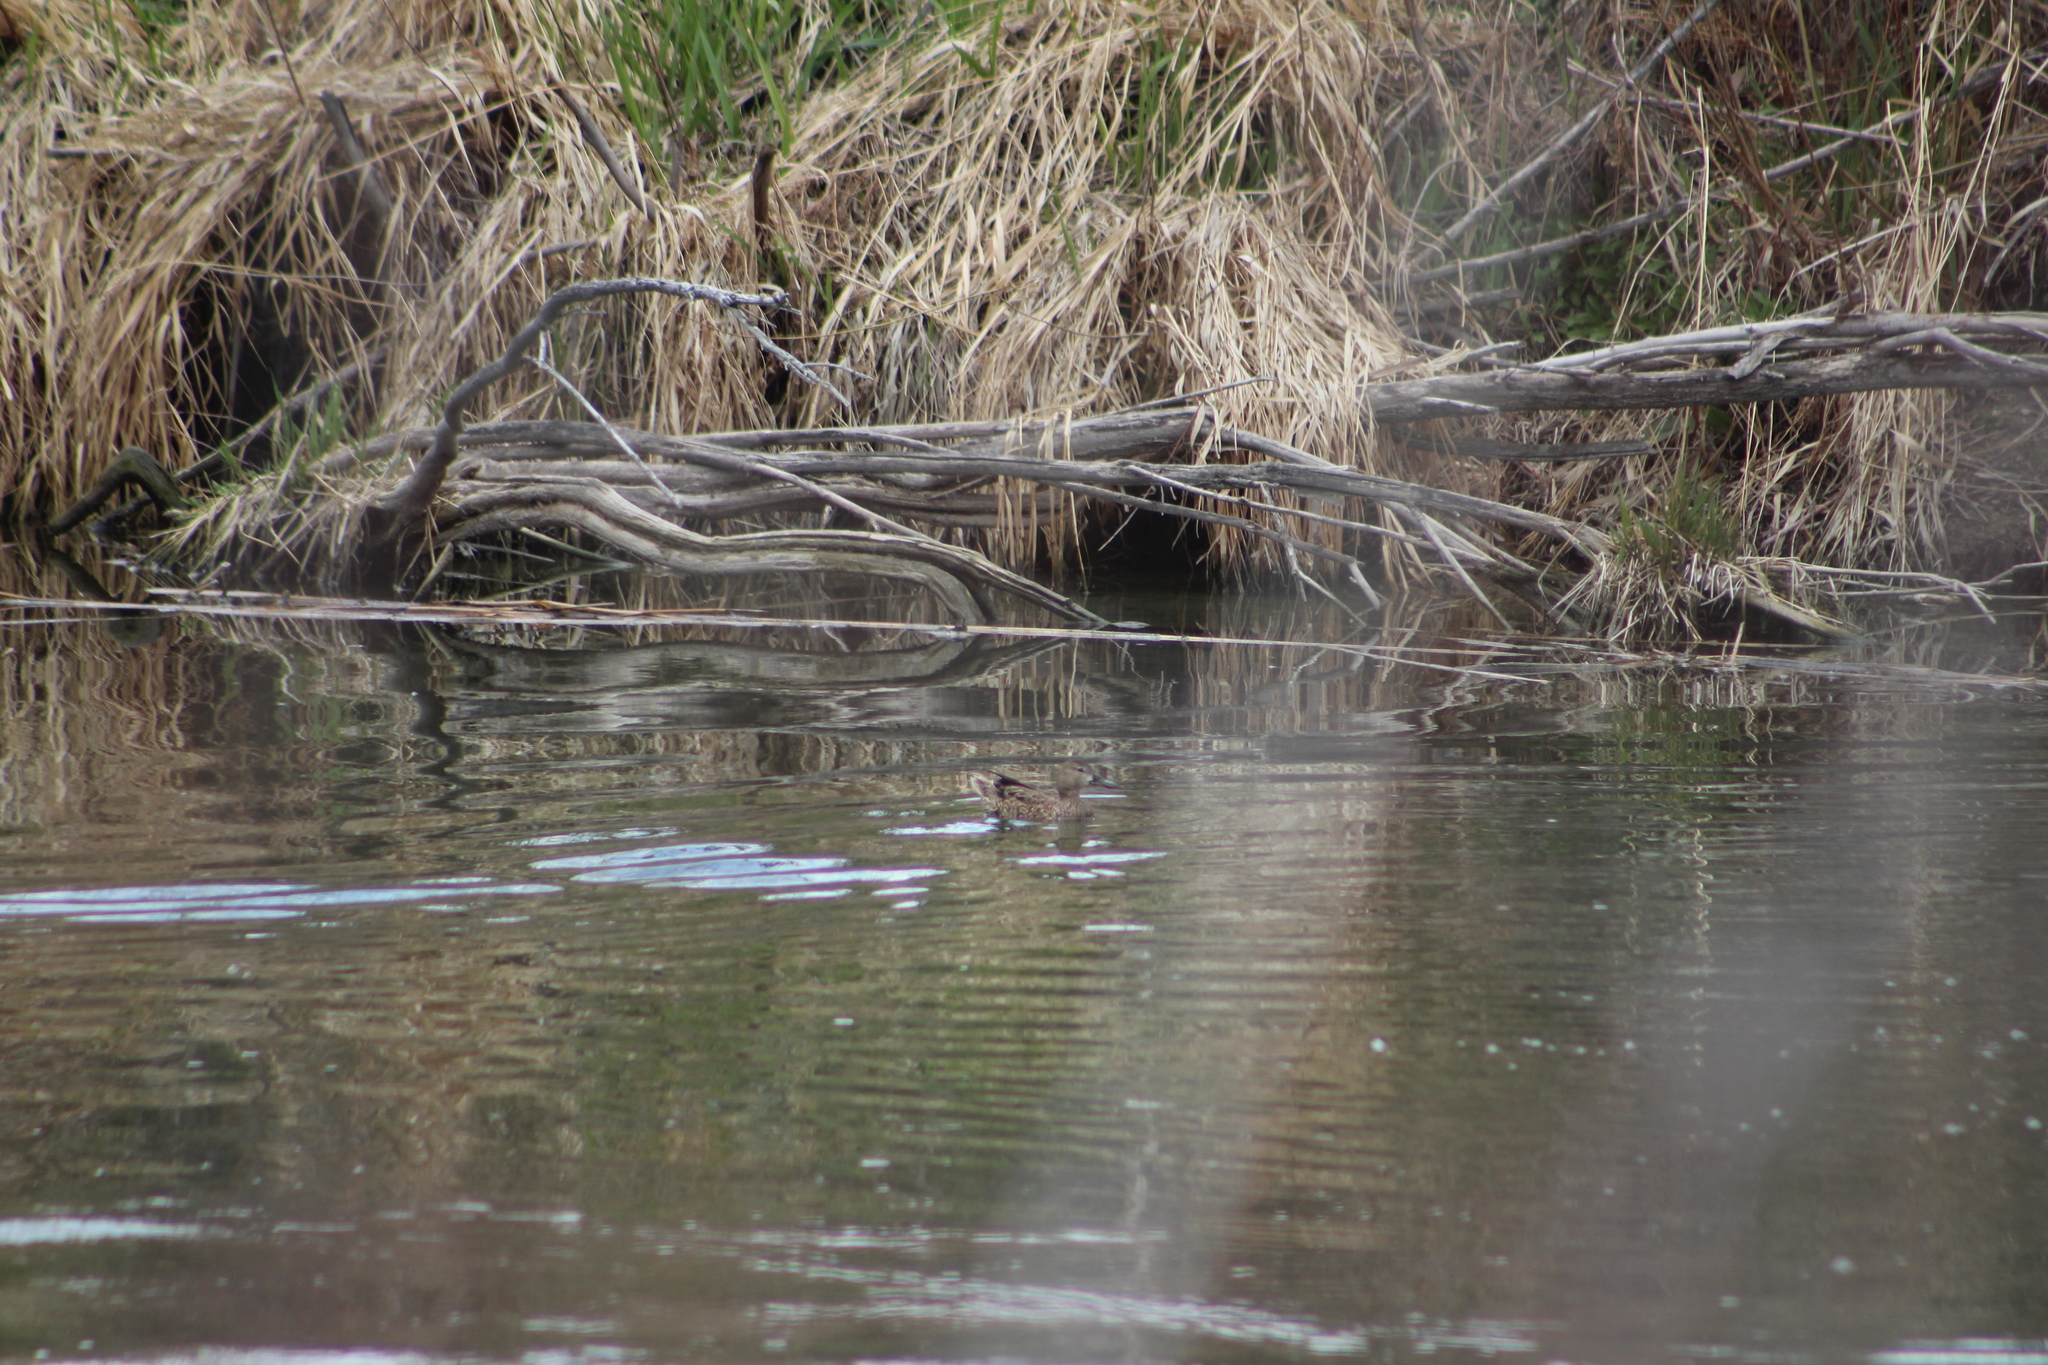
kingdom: Animalia
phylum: Chordata
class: Aves
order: Anseriformes
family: Anatidae
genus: Spatula
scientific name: Spatula discors
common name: Blue-winged teal
